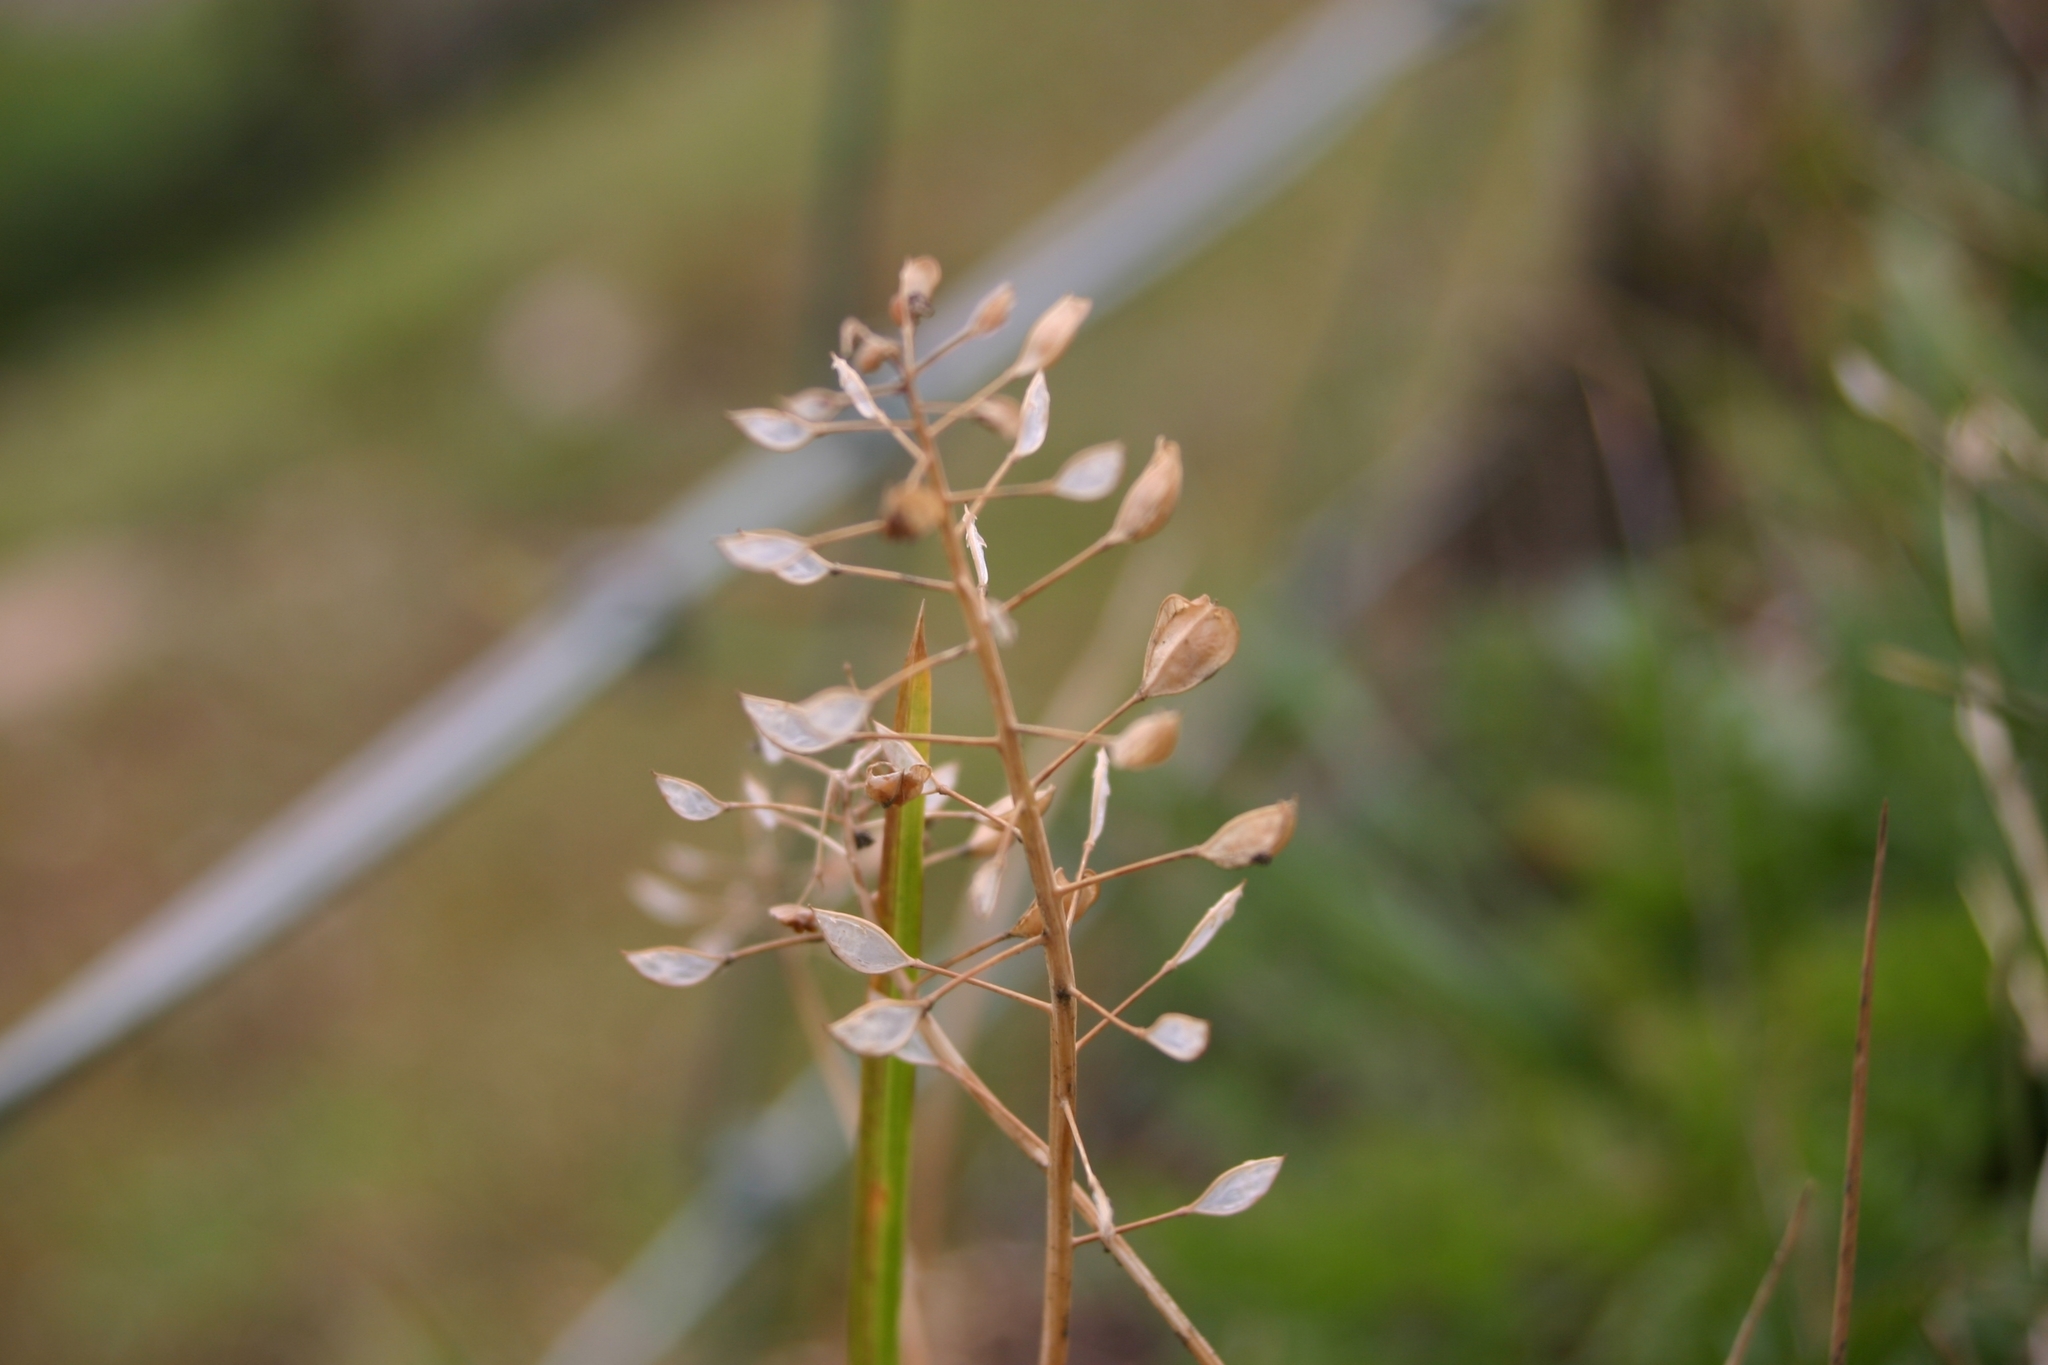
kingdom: Plantae
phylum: Tracheophyta
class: Magnoliopsida
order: Brassicales
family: Brassicaceae
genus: Noccaea
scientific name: Noccaea perfoliata
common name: Perfoliate pennycress
